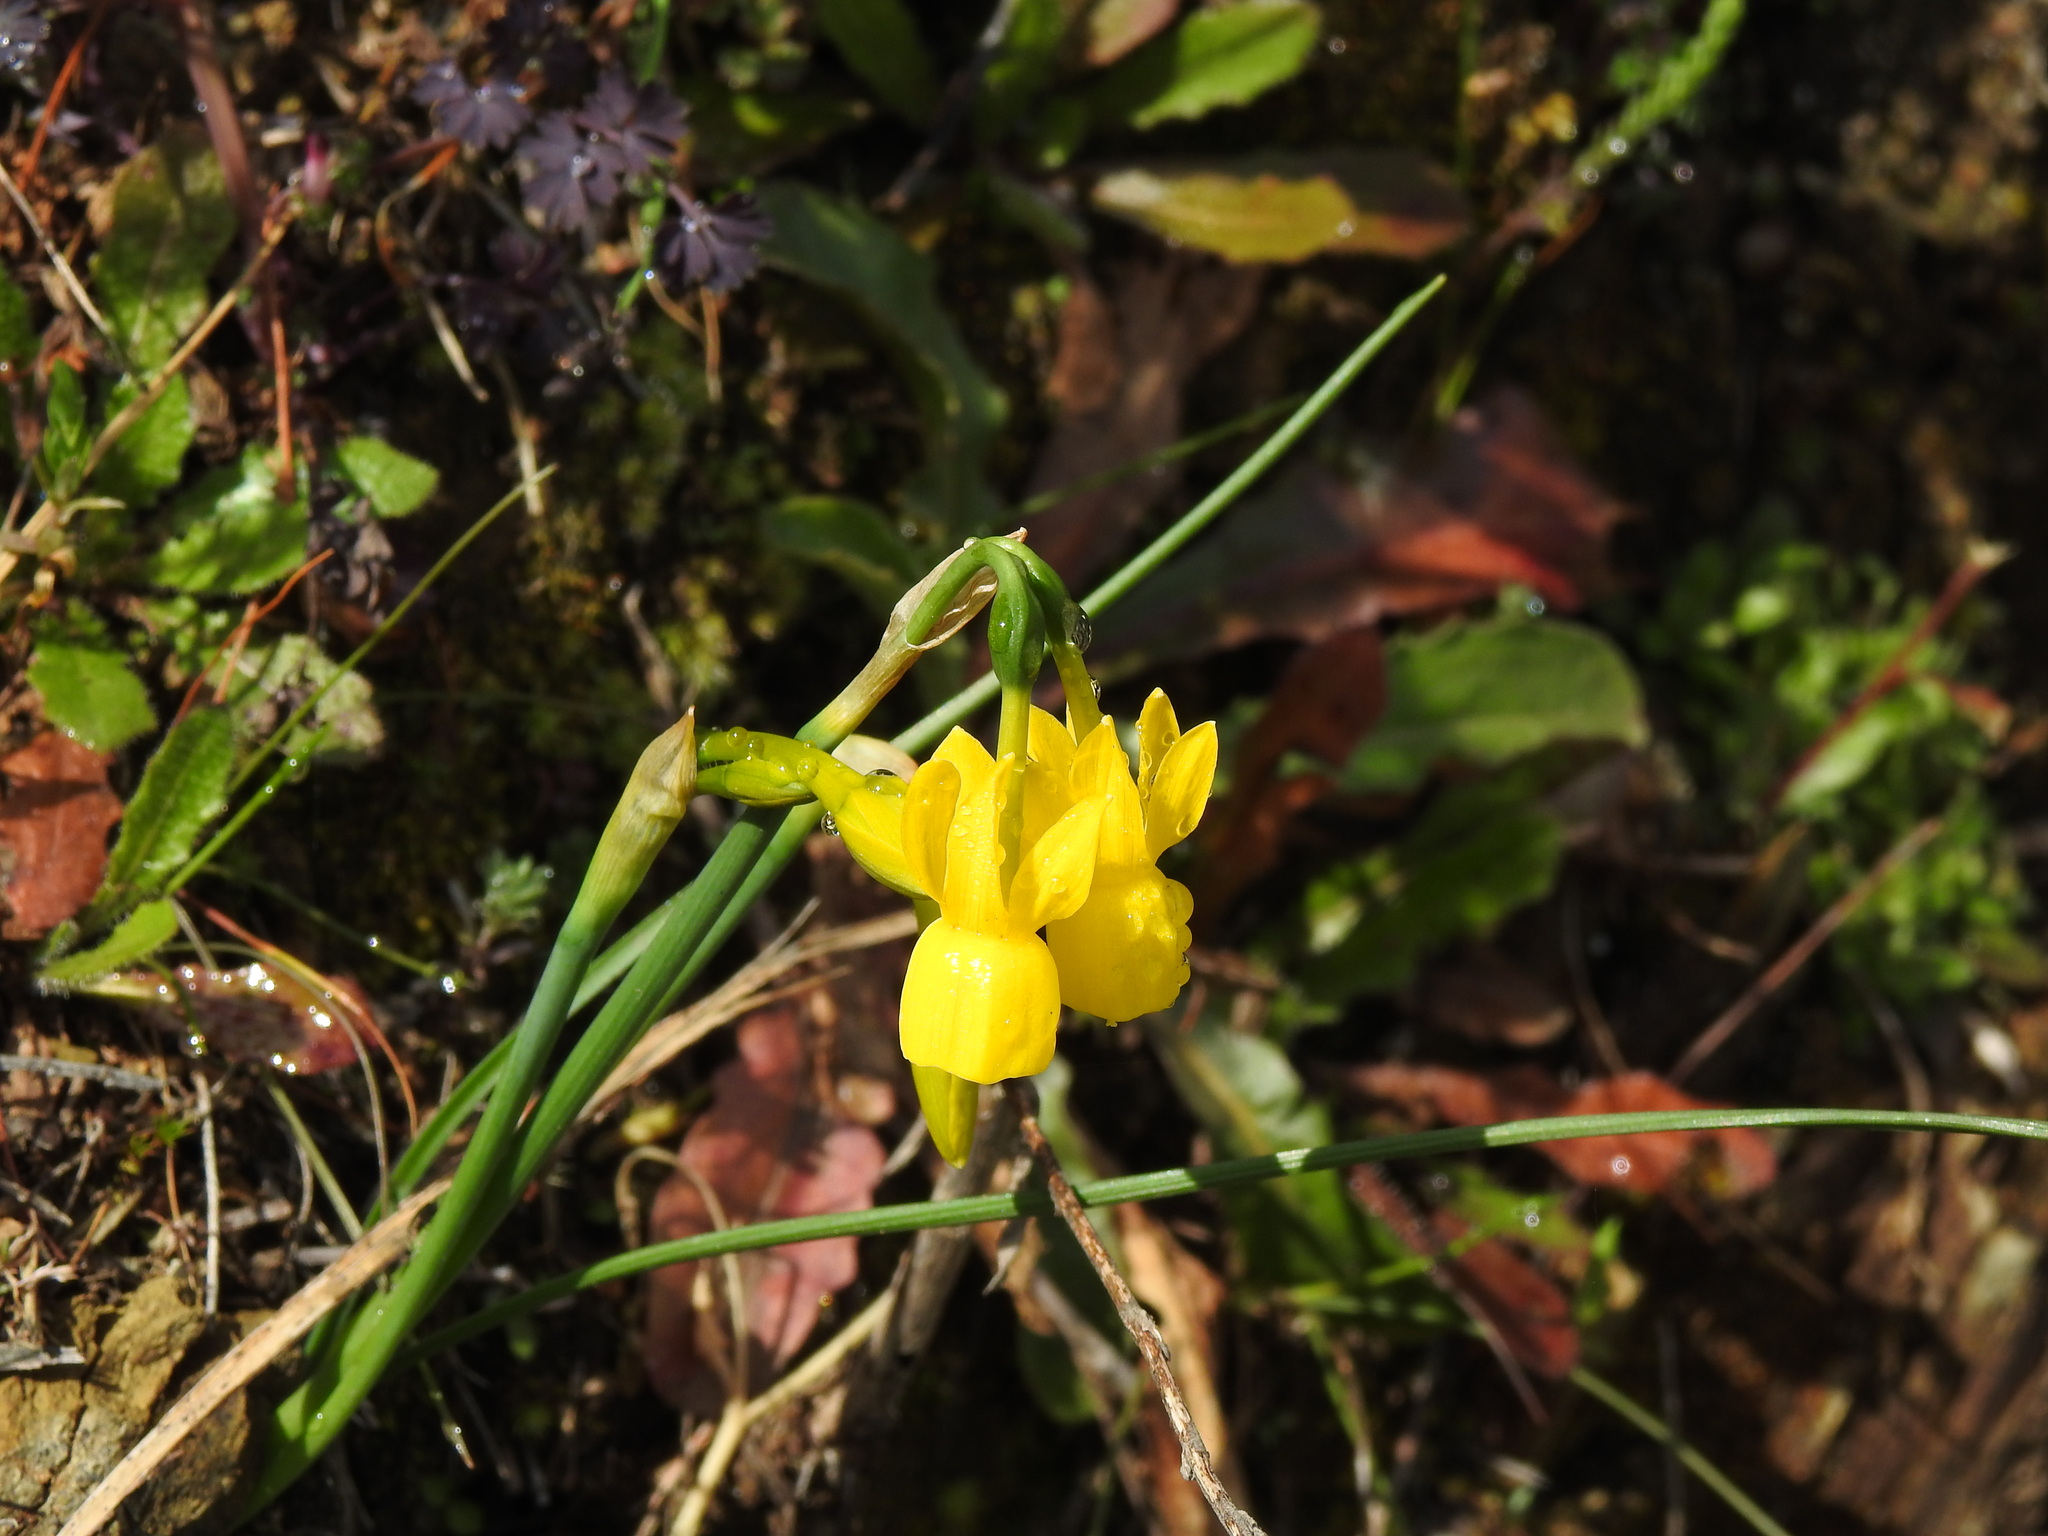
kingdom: Plantae
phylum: Tracheophyta
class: Liliopsida
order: Asparagales
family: Amaryllidaceae
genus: Narcissus
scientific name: Narcissus triandrus
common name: Angel's-tears
